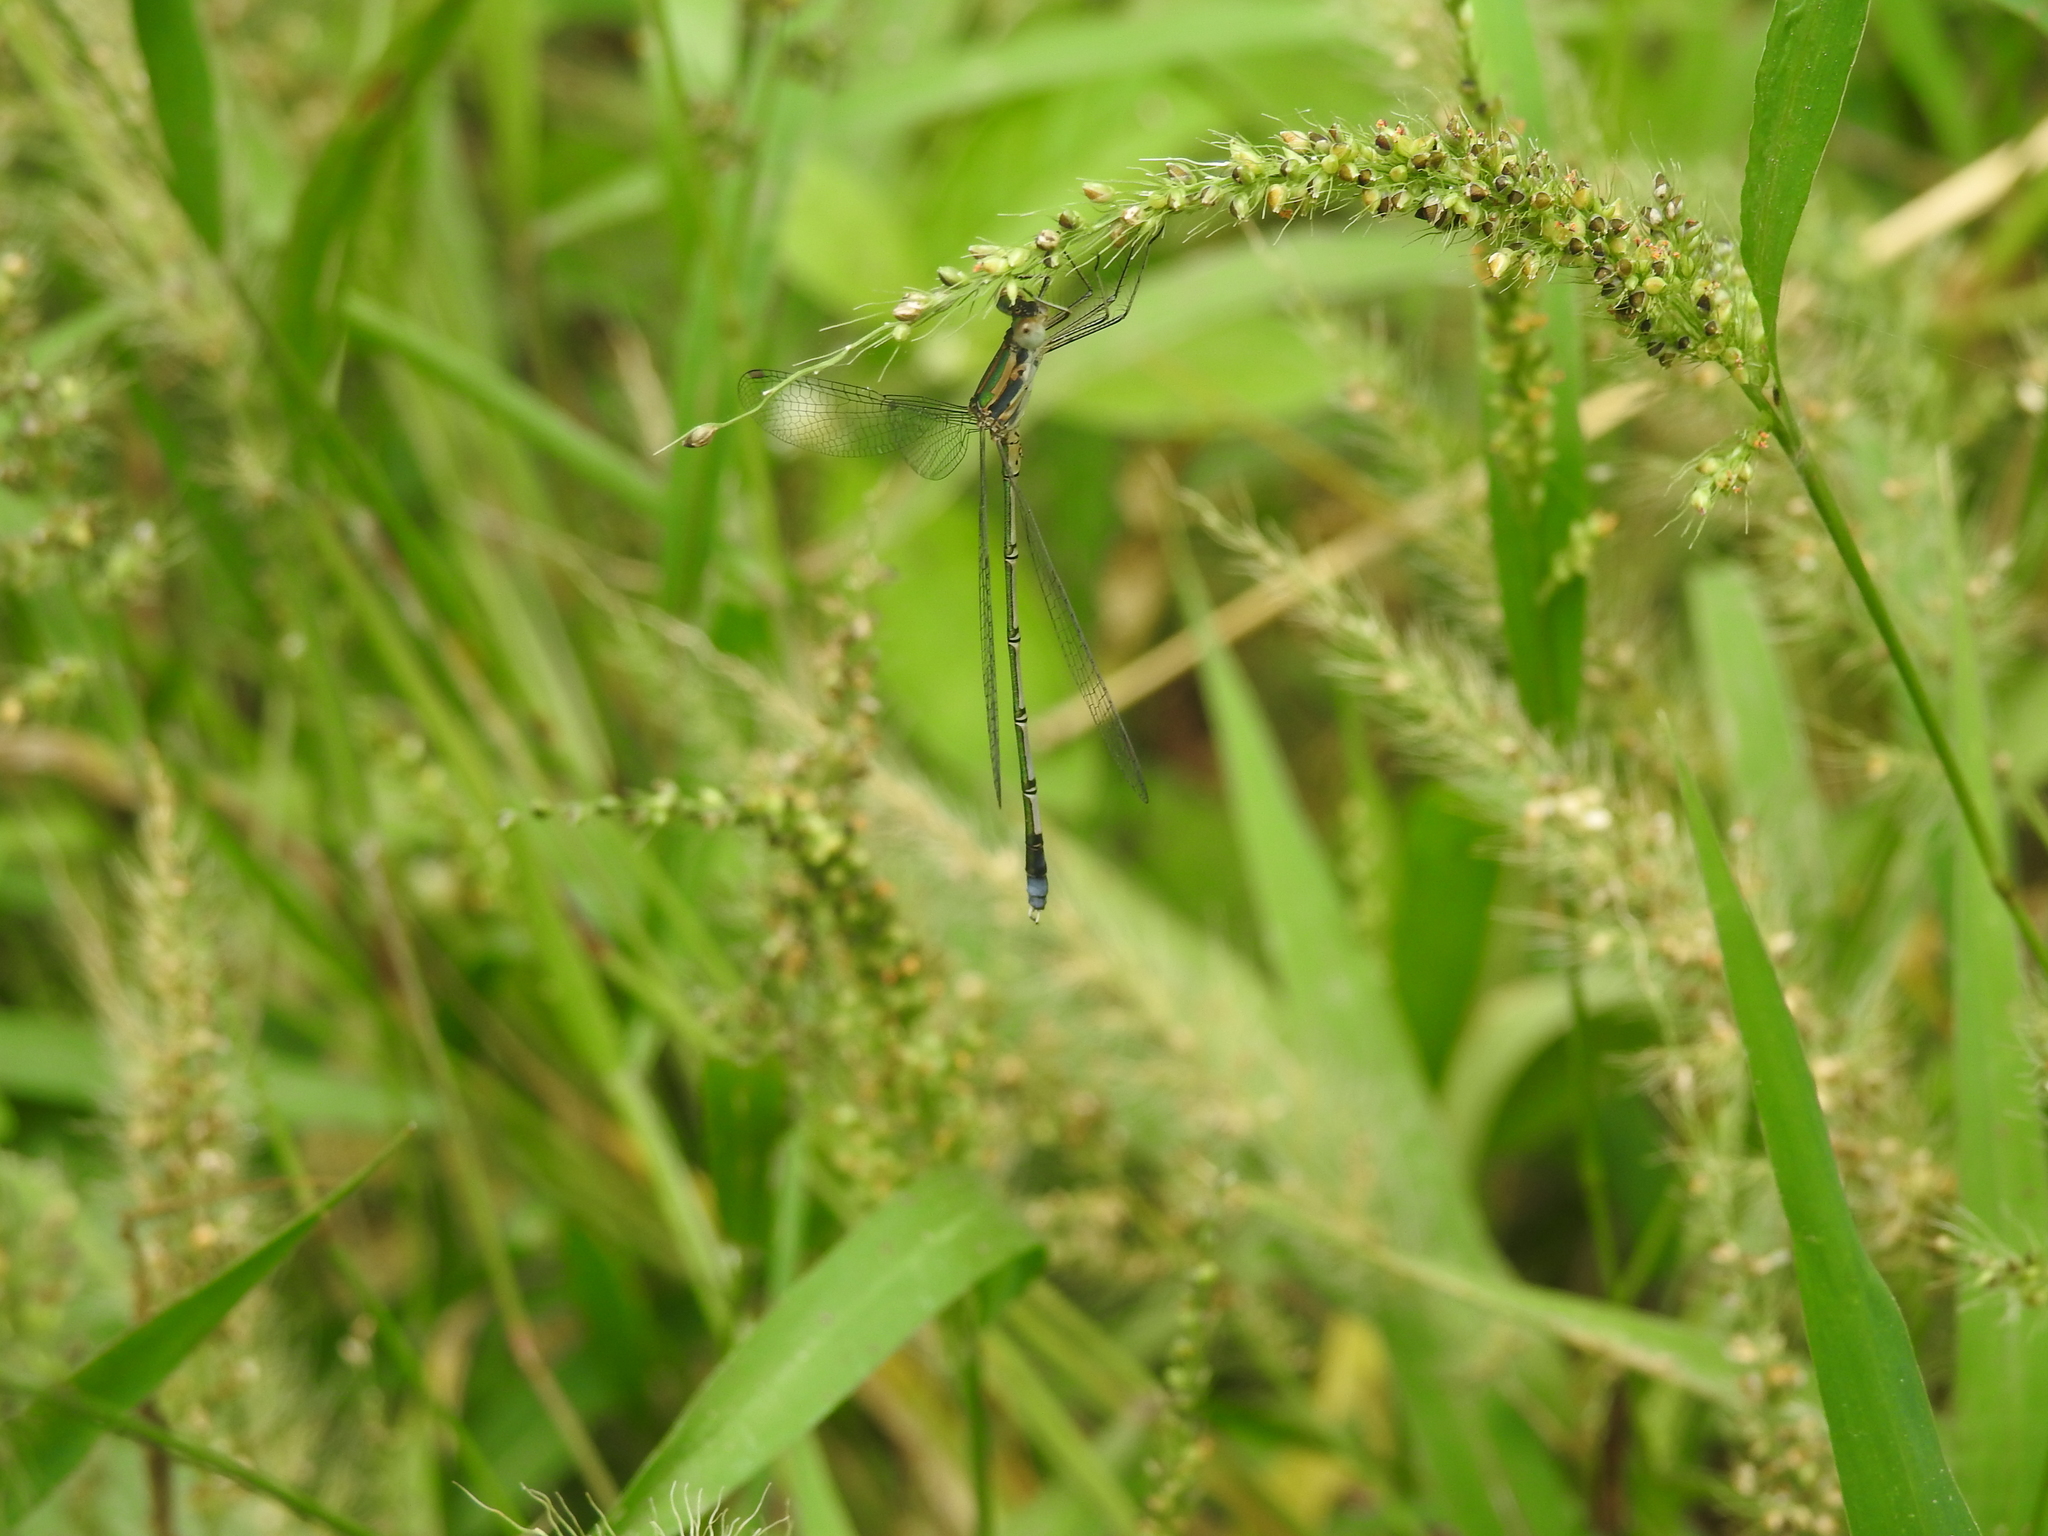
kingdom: Animalia
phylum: Arthropoda
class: Insecta
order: Odonata
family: Lestidae
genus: Lestes
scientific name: Lestes elatus
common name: Emerald spreadwing
